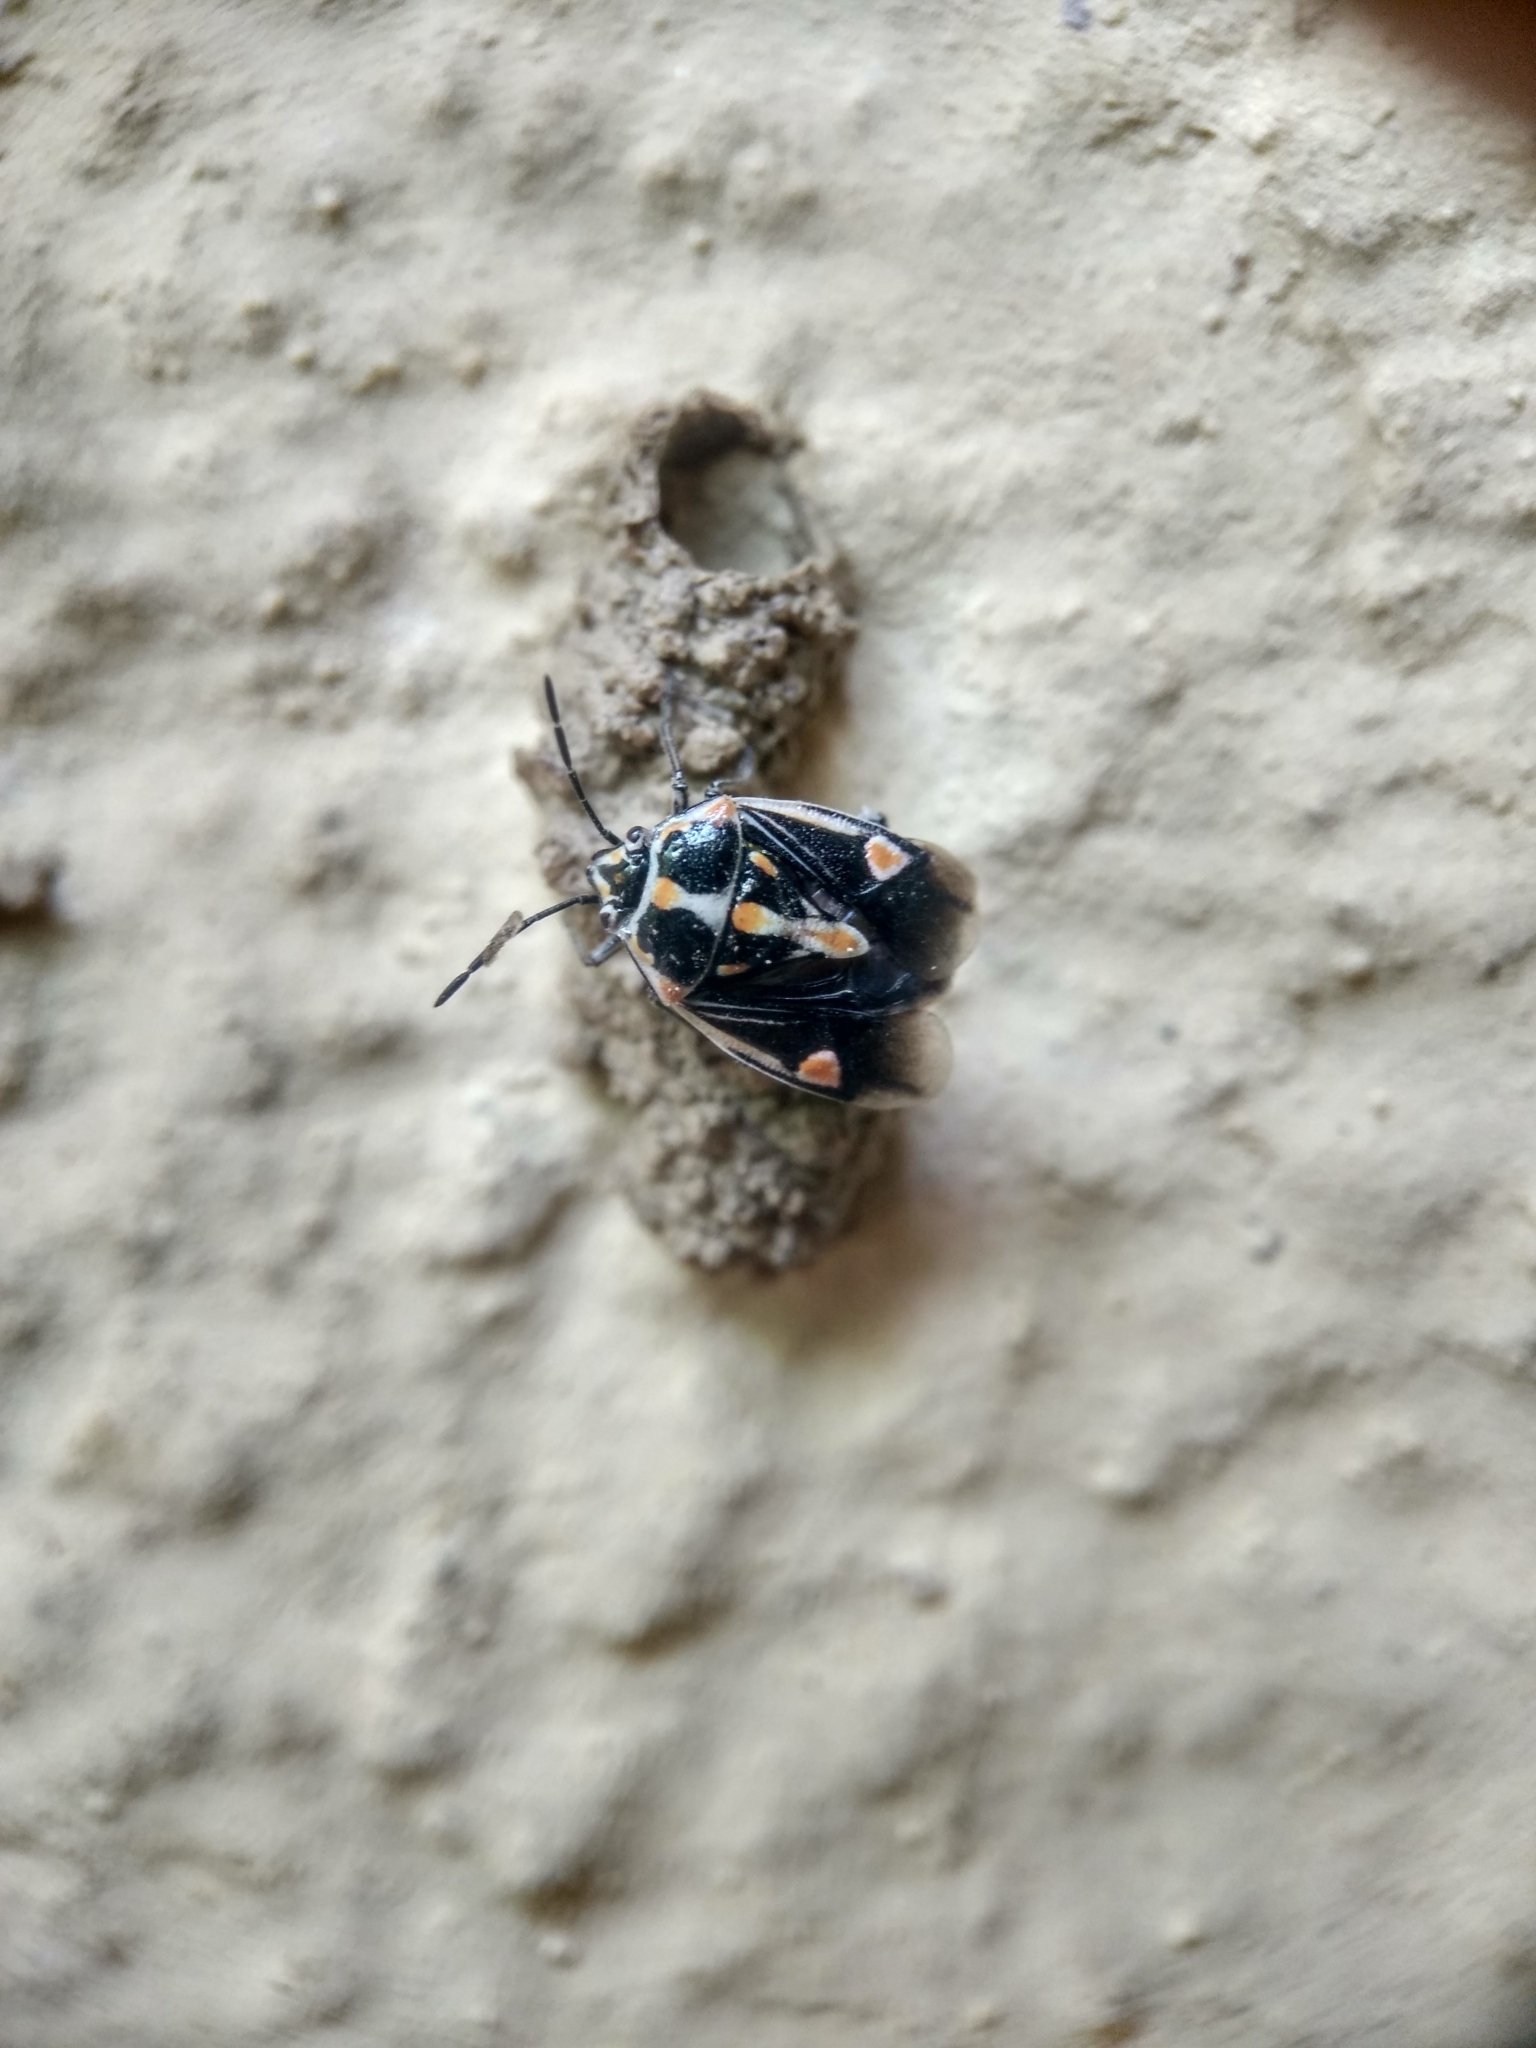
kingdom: Animalia
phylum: Arthropoda
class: Insecta
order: Hemiptera
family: Pentatomidae
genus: Bagrada
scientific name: Bagrada hilaris
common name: Bagrada bug
